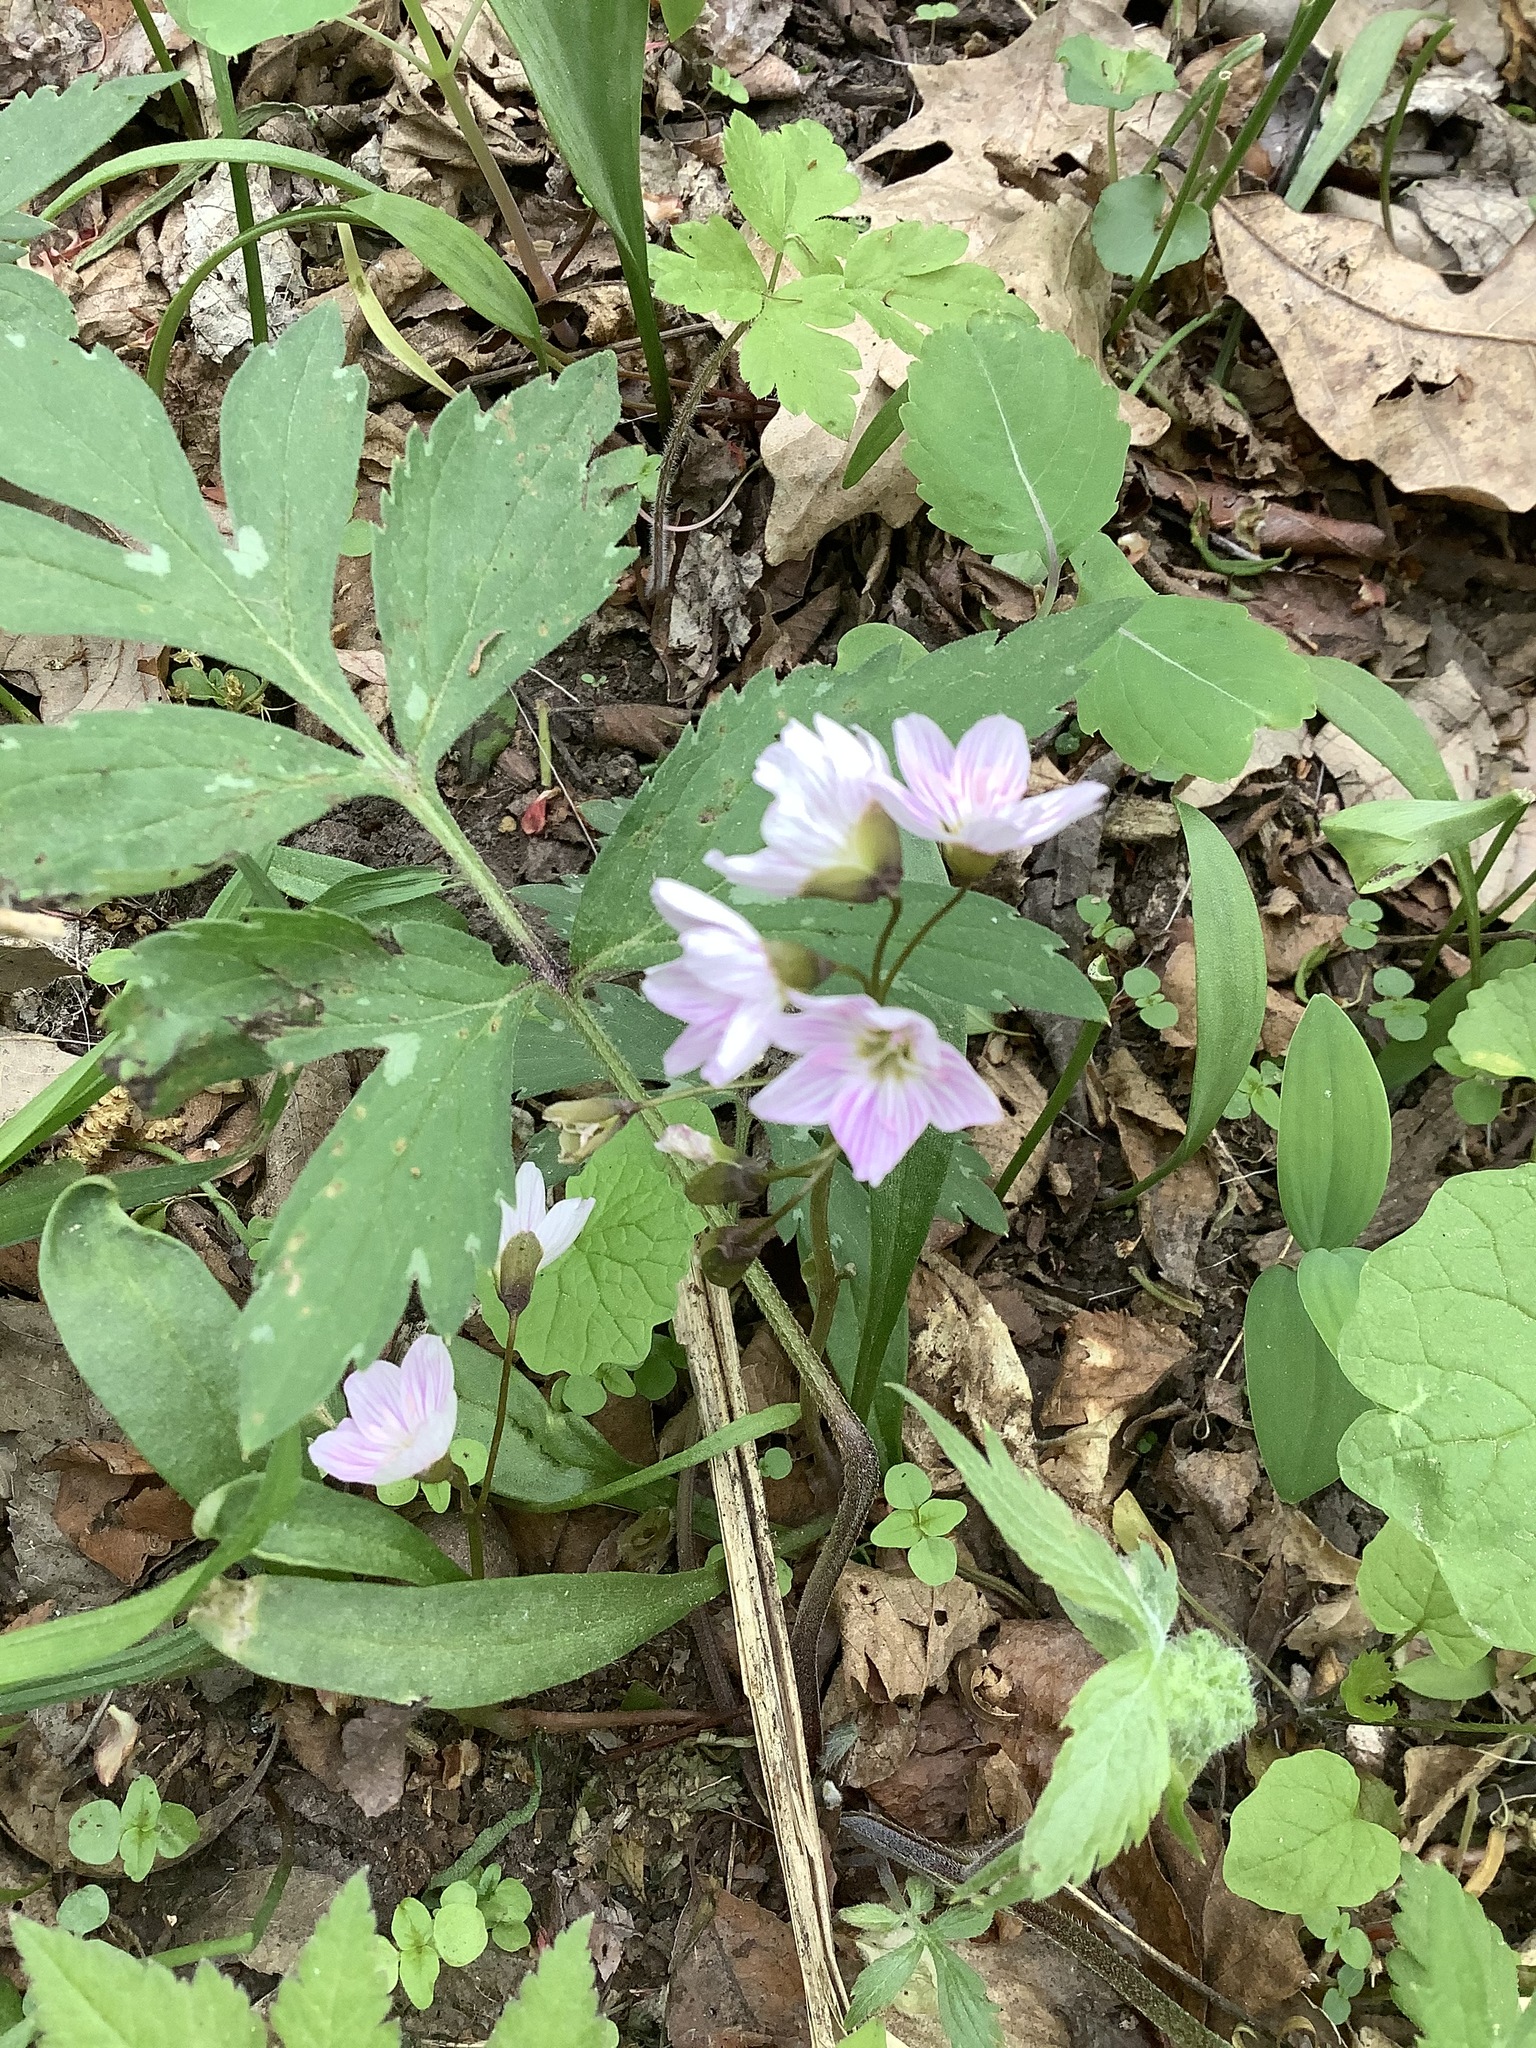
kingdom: Plantae
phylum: Tracheophyta
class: Magnoliopsida
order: Caryophyllales
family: Montiaceae
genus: Claytonia
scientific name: Claytonia virginica
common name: Virginia springbeauty
